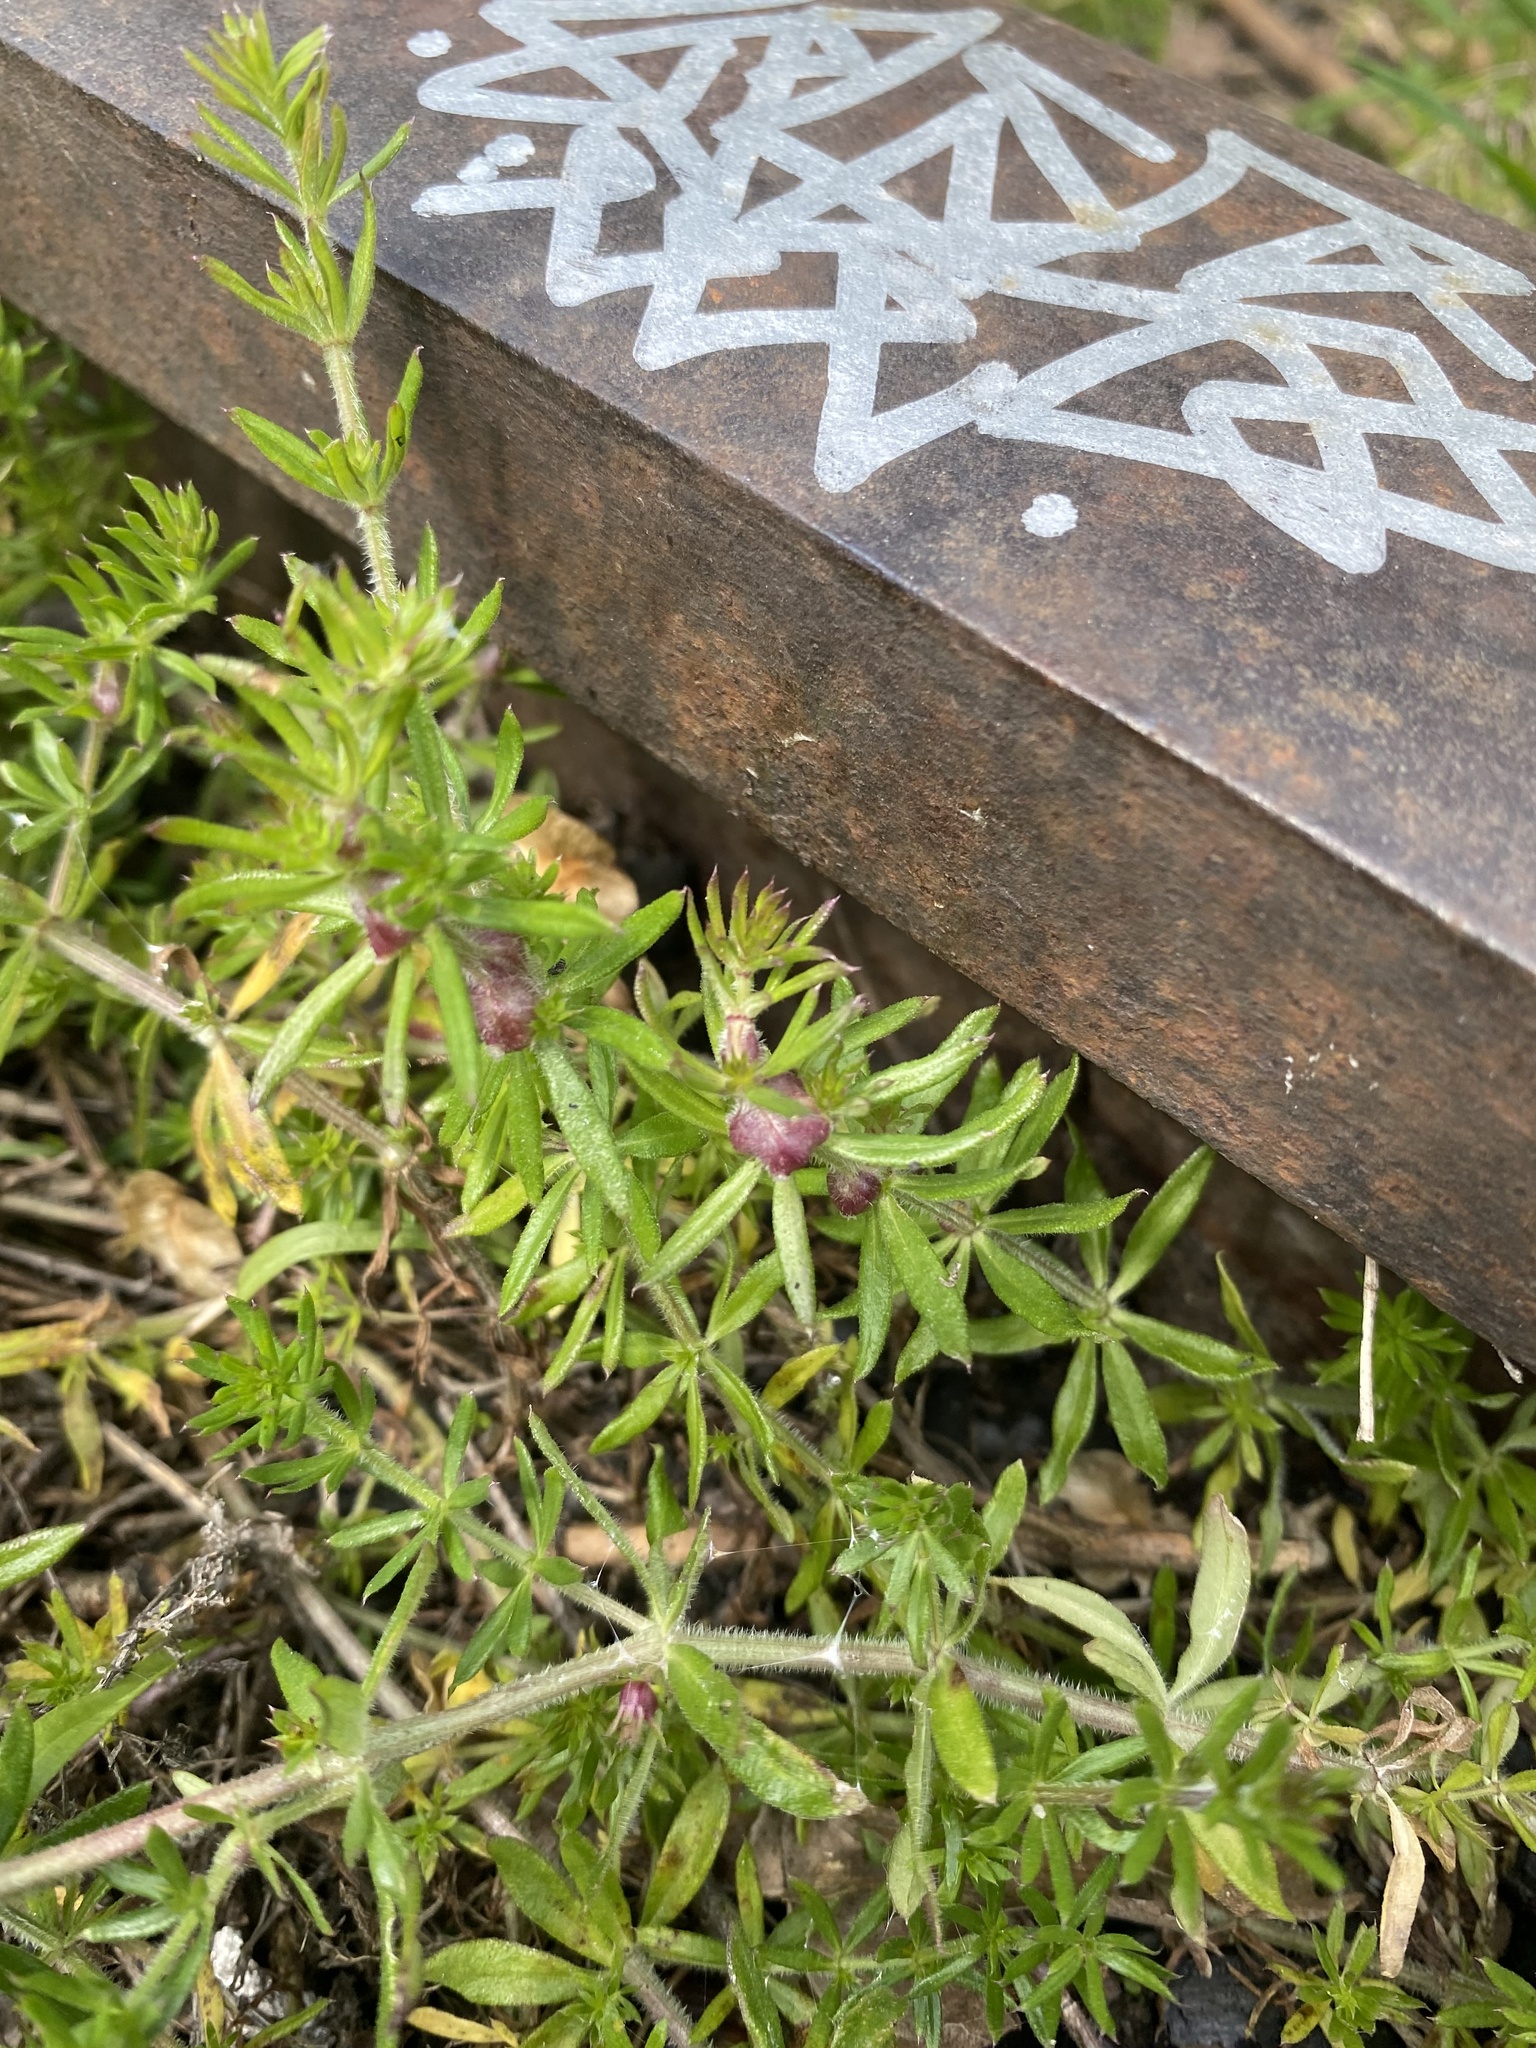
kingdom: Plantae
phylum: Tracheophyta
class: Magnoliopsida
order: Gentianales
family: Rubiaceae
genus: Galium
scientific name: Galium humifusum
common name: Spreading bedstraw
